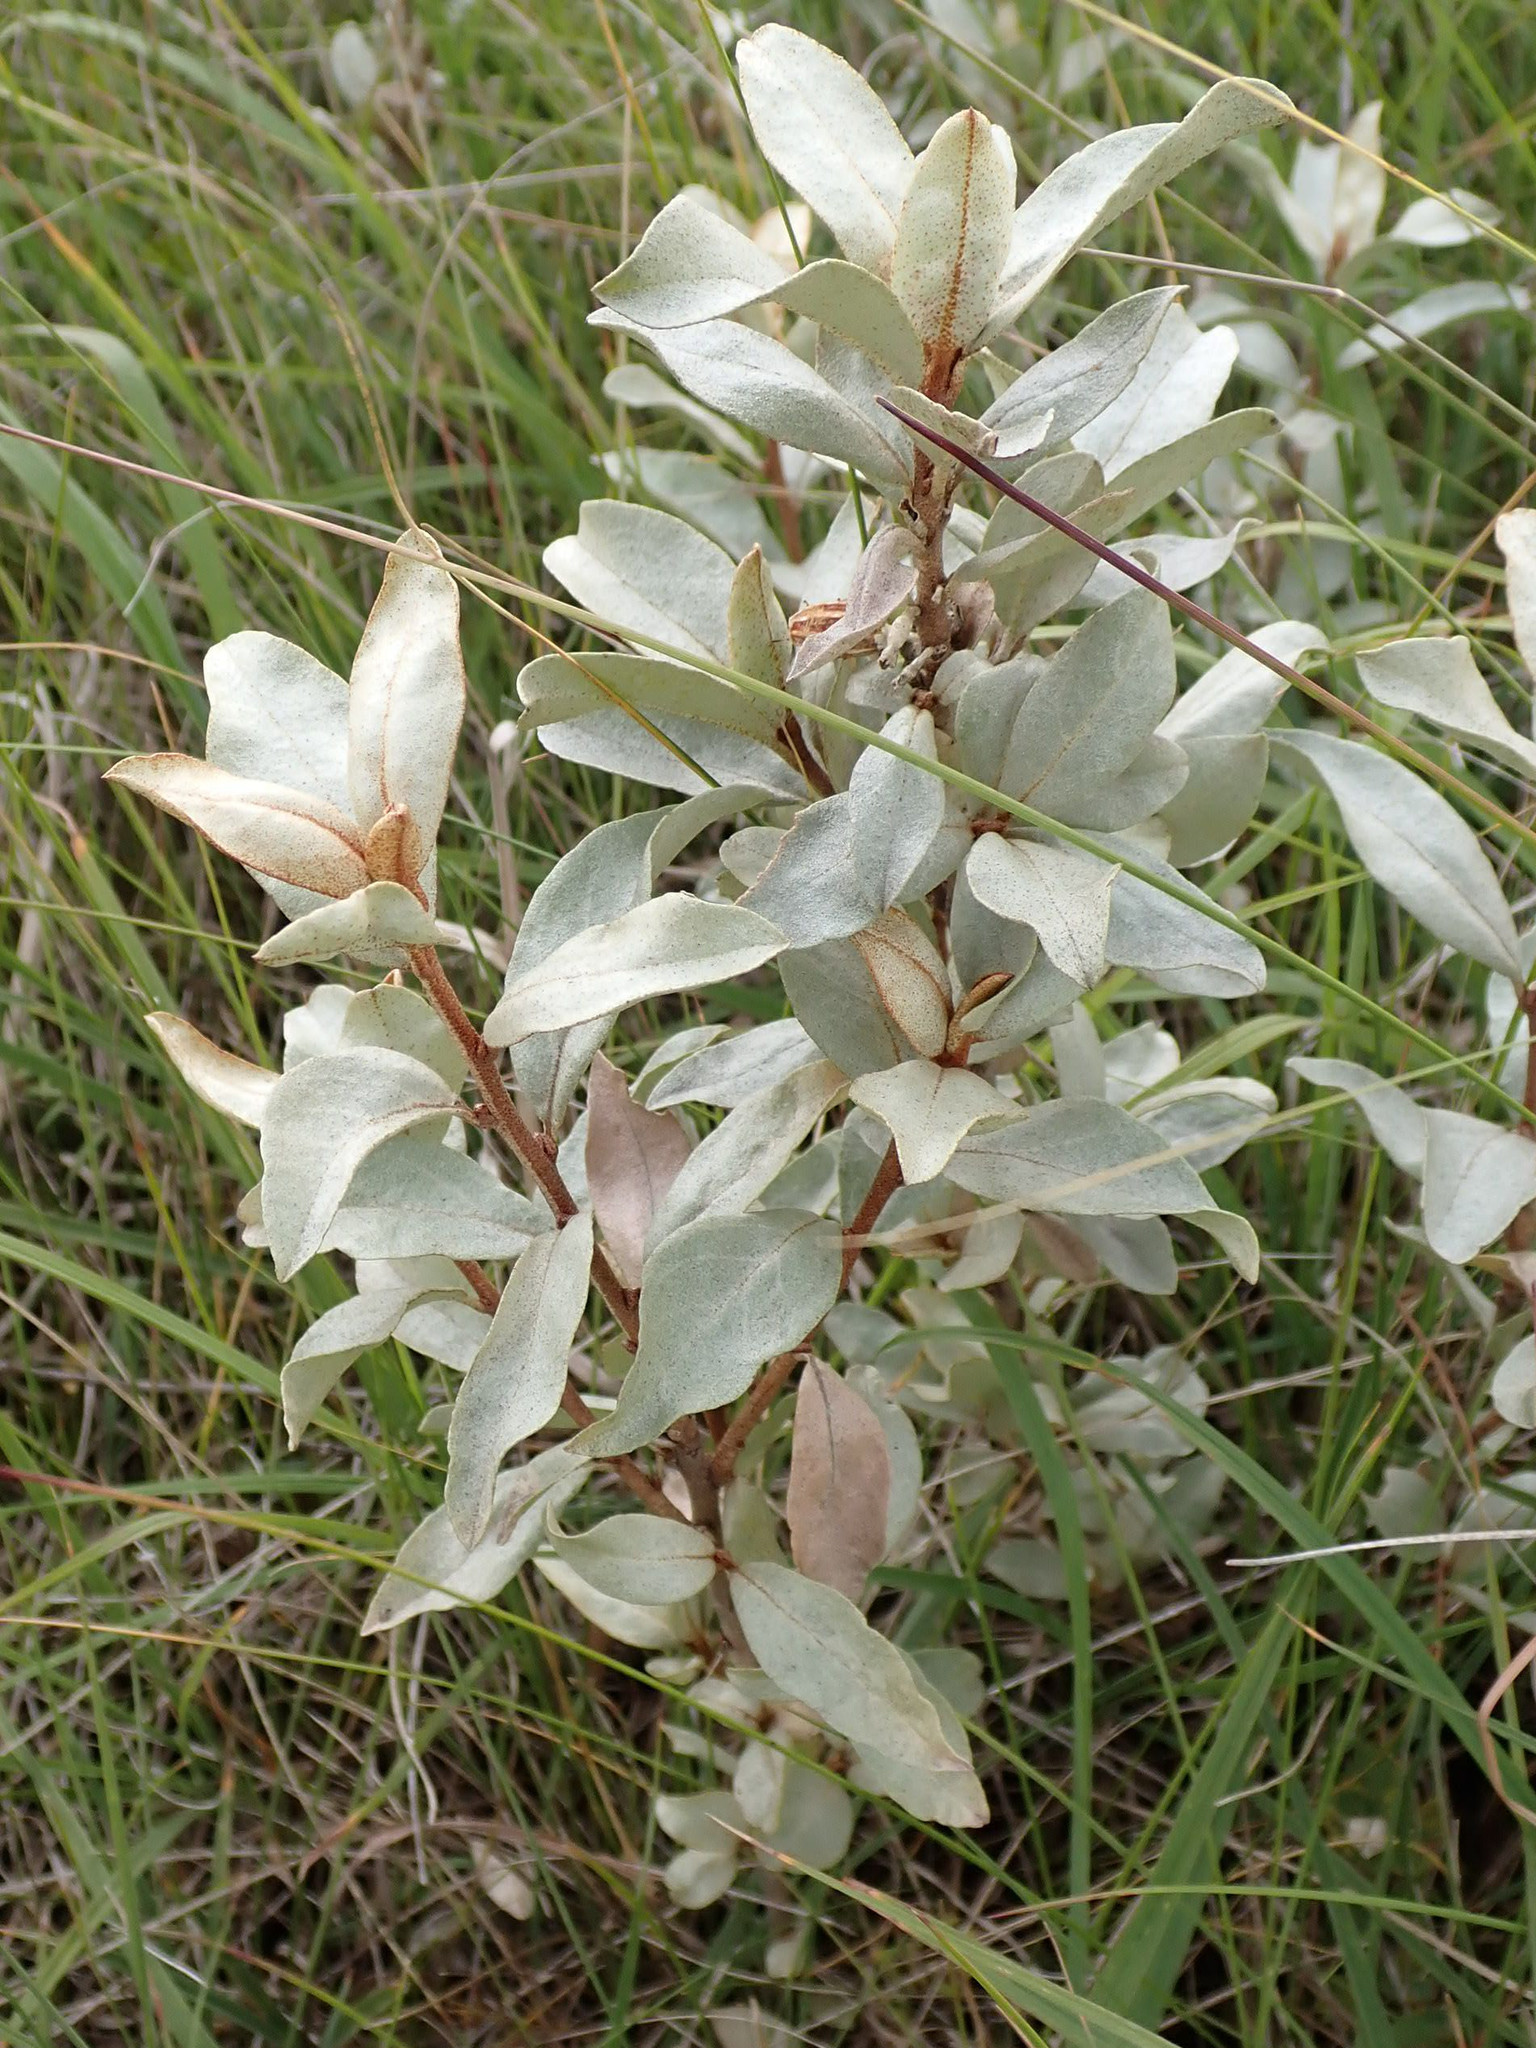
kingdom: Plantae
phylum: Tracheophyta
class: Magnoliopsida
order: Rosales
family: Elaeagnaceae
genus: Elaeagnus
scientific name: Elaeagnus commutata
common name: Silverberry
